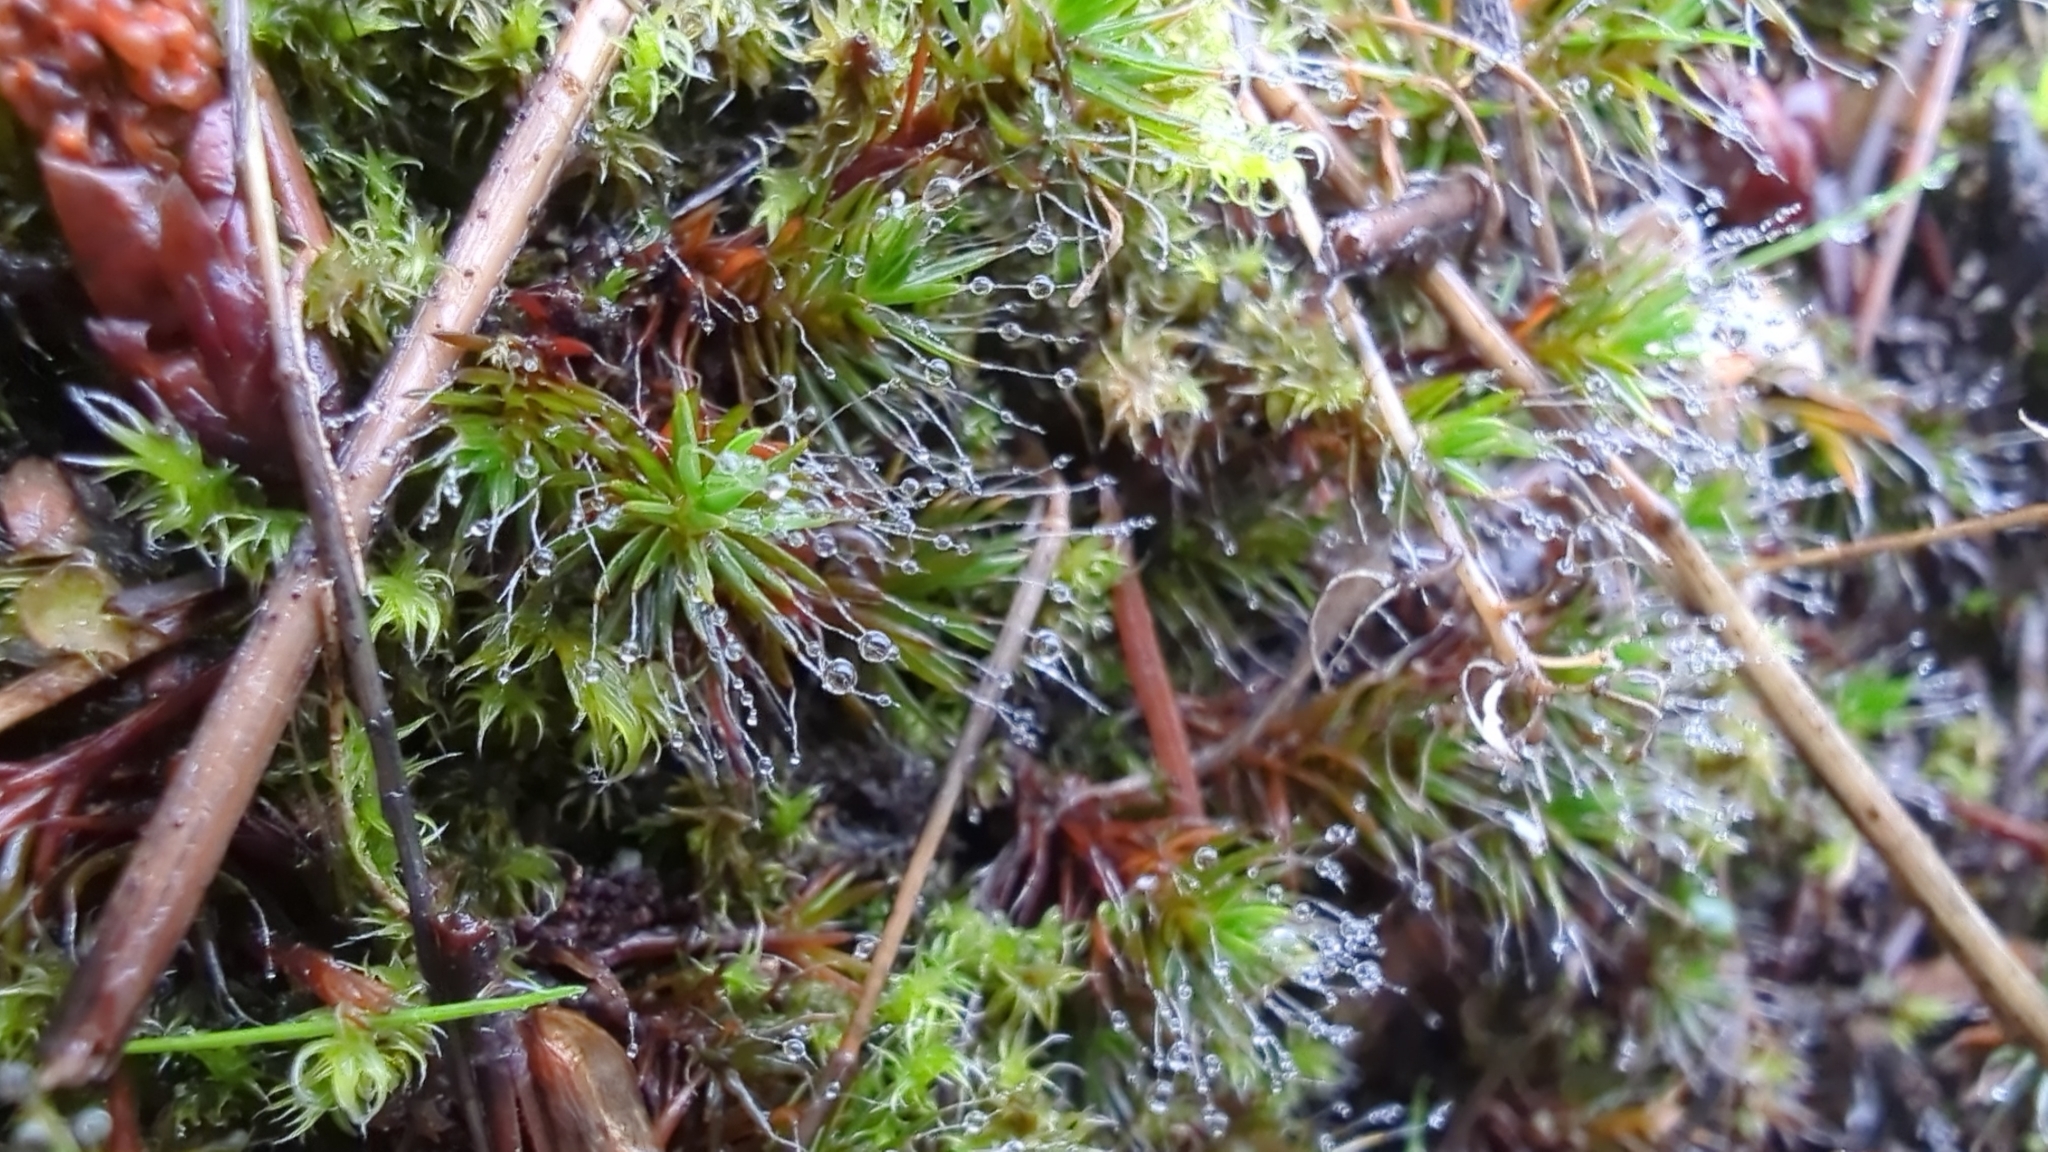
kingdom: Plantae
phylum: Bryophyta
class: Polytrichopsida
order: Polytrichales
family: Polytrichaceae
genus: Polytrichum
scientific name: Polytrichum piliferum
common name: Bristly haircap
